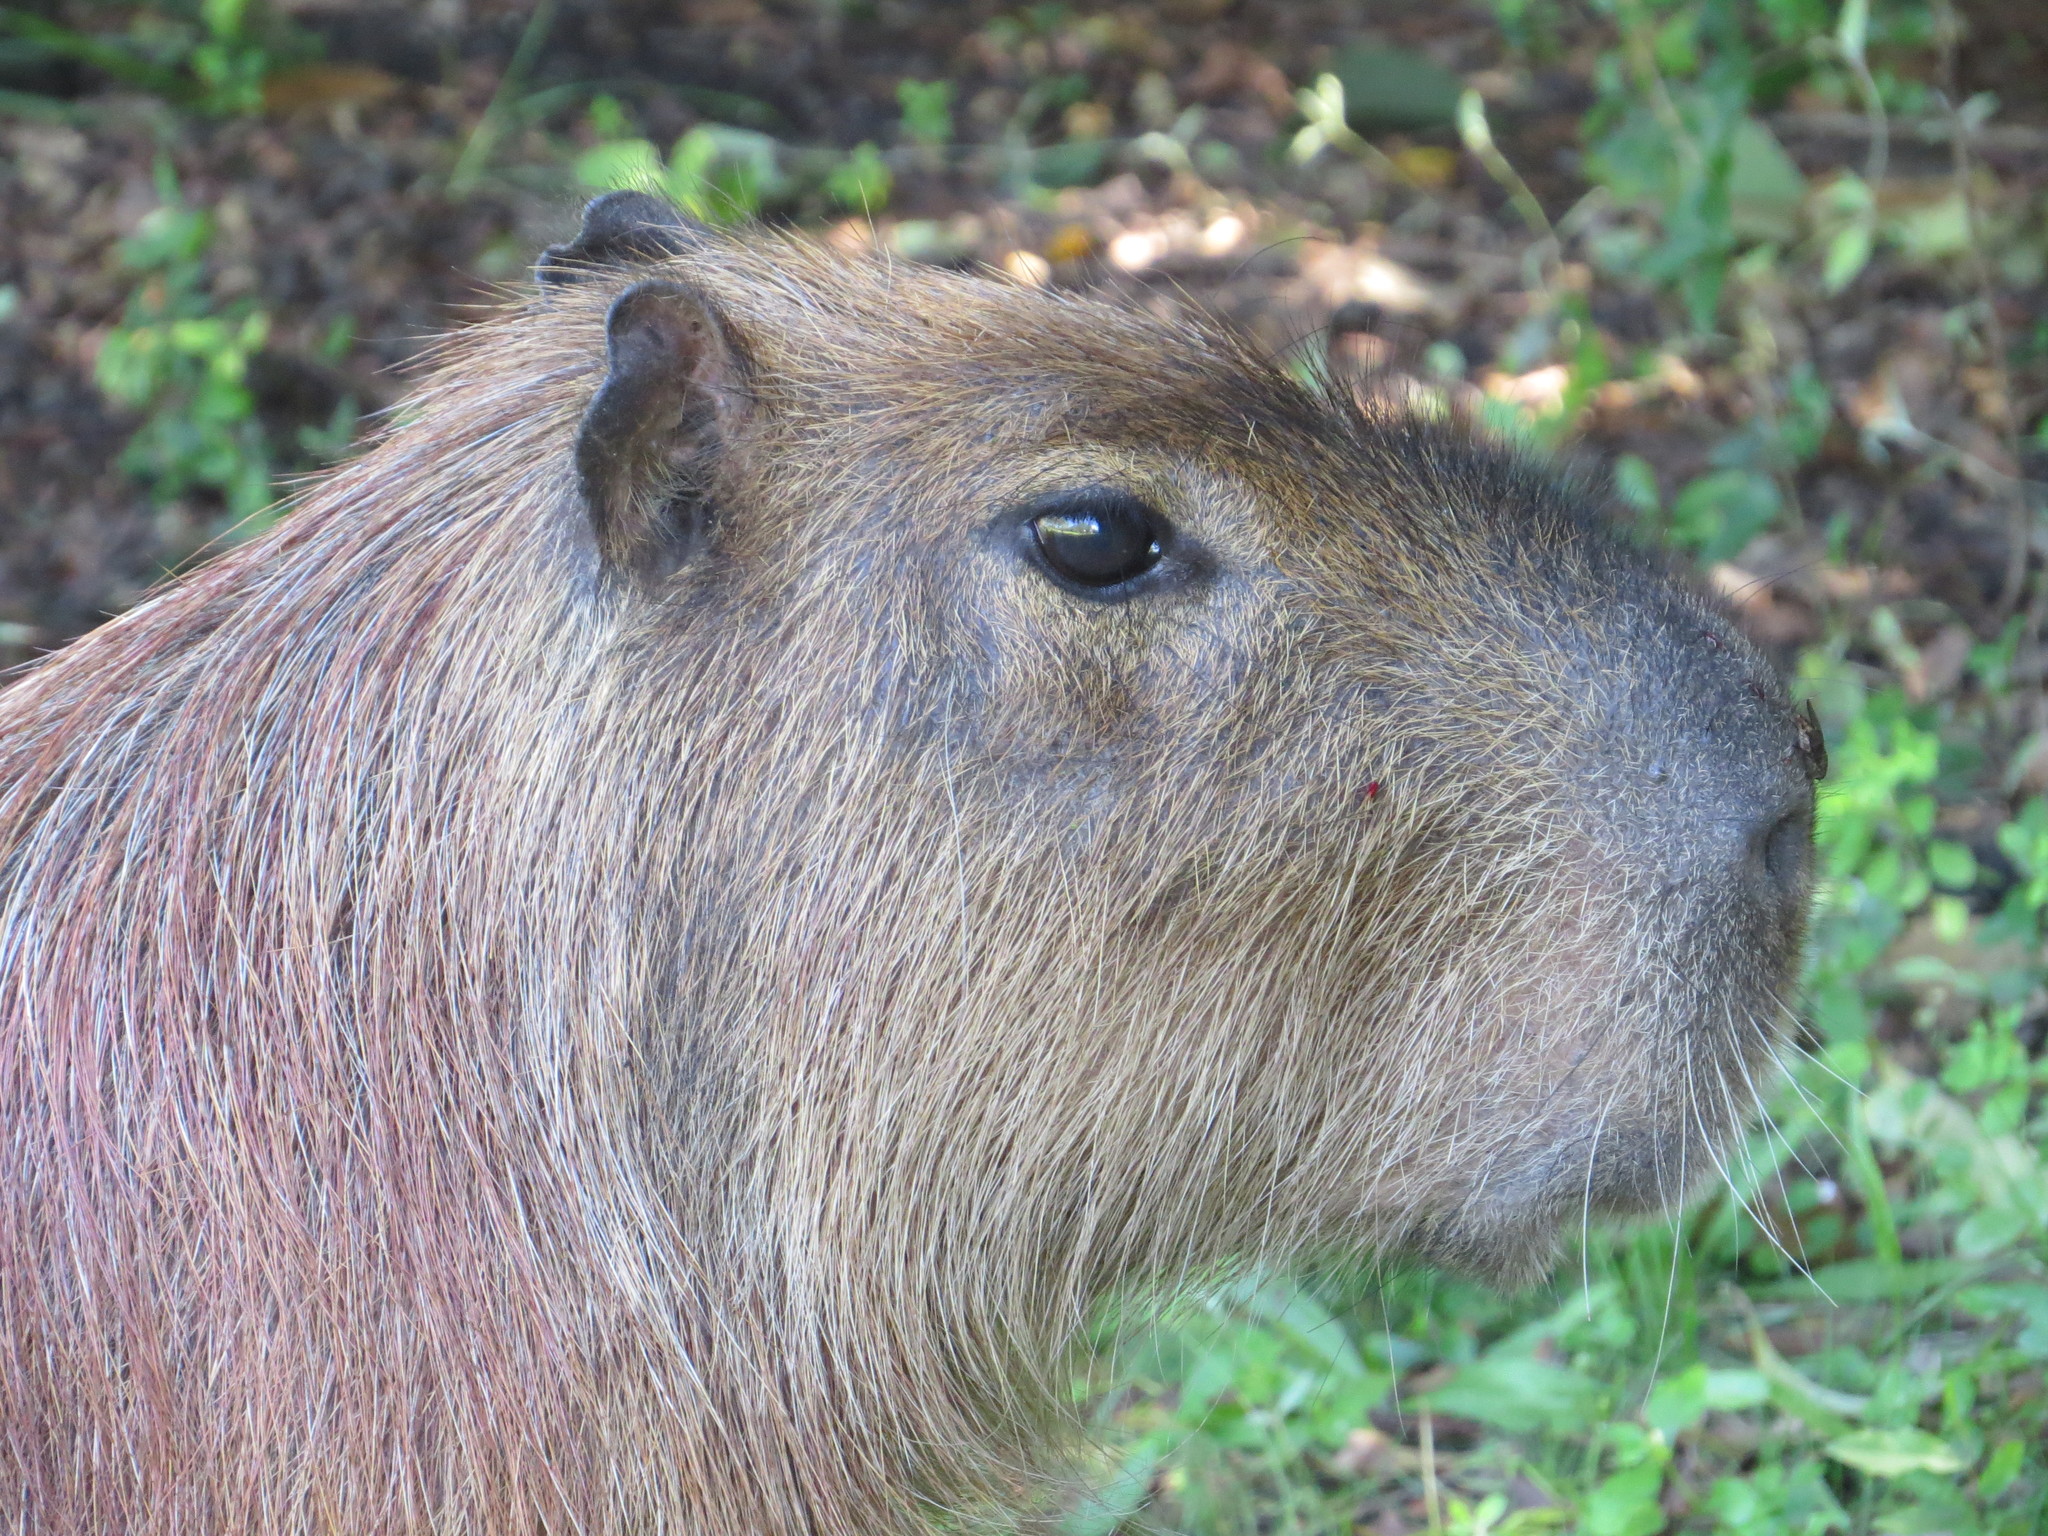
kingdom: Animalia
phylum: Chordata
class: Mammalia
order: Rodentia
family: Caviidae
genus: Hydrochoerus
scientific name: Hydrochoerus hydrochaeris
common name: Capybara
